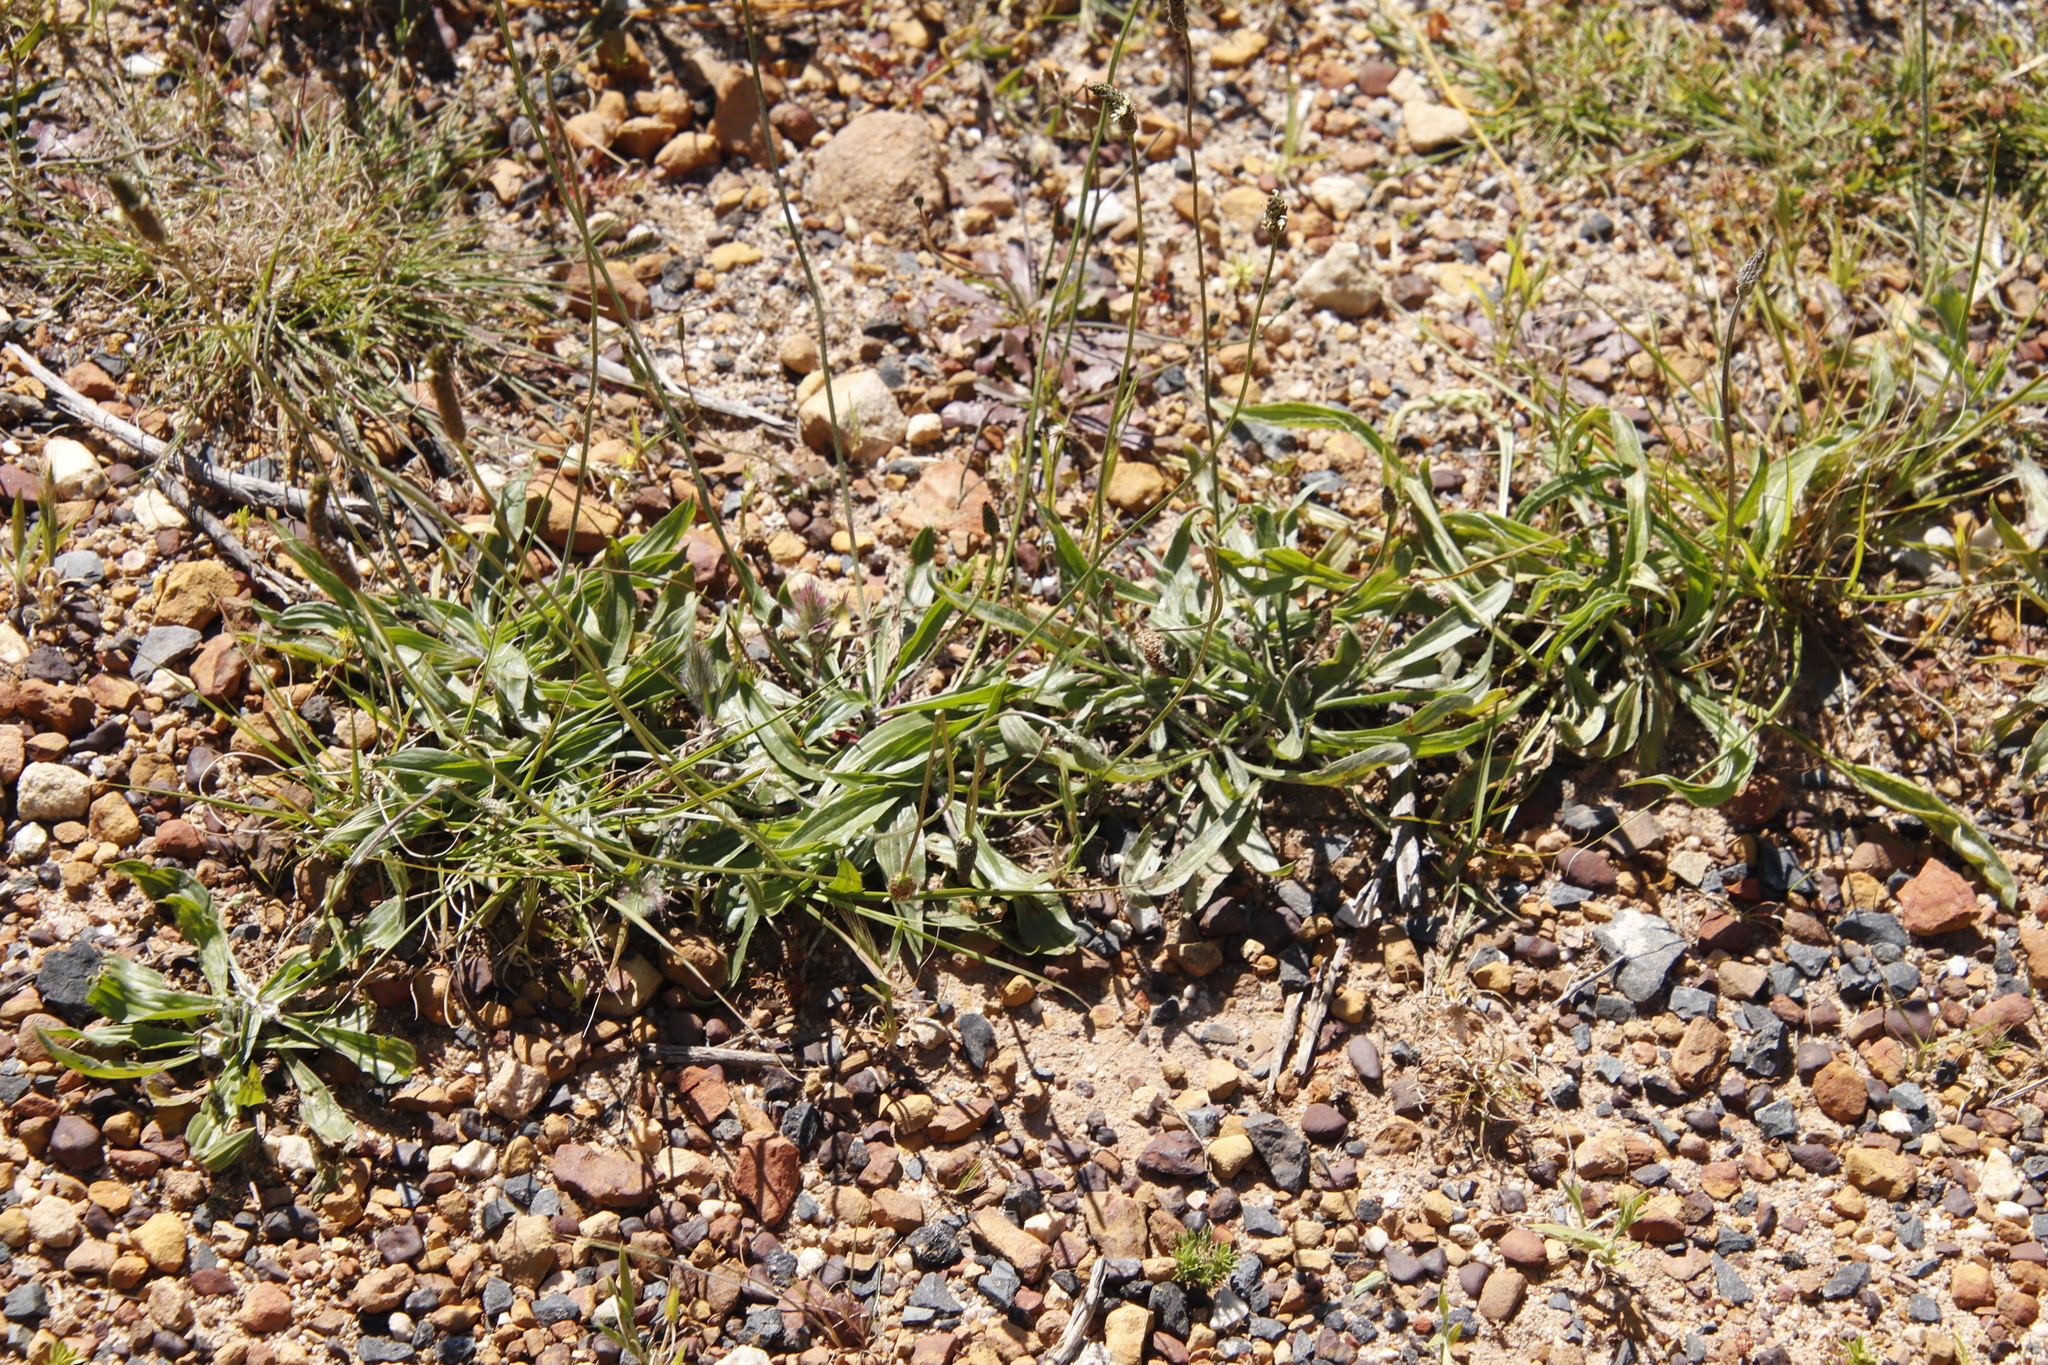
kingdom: Plantae
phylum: Tracheophyta
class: Magnoliopsida
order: Lamiales
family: Plantaginaceae
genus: Plantago
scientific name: Plantago lanceolata
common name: Ribwort plantain
